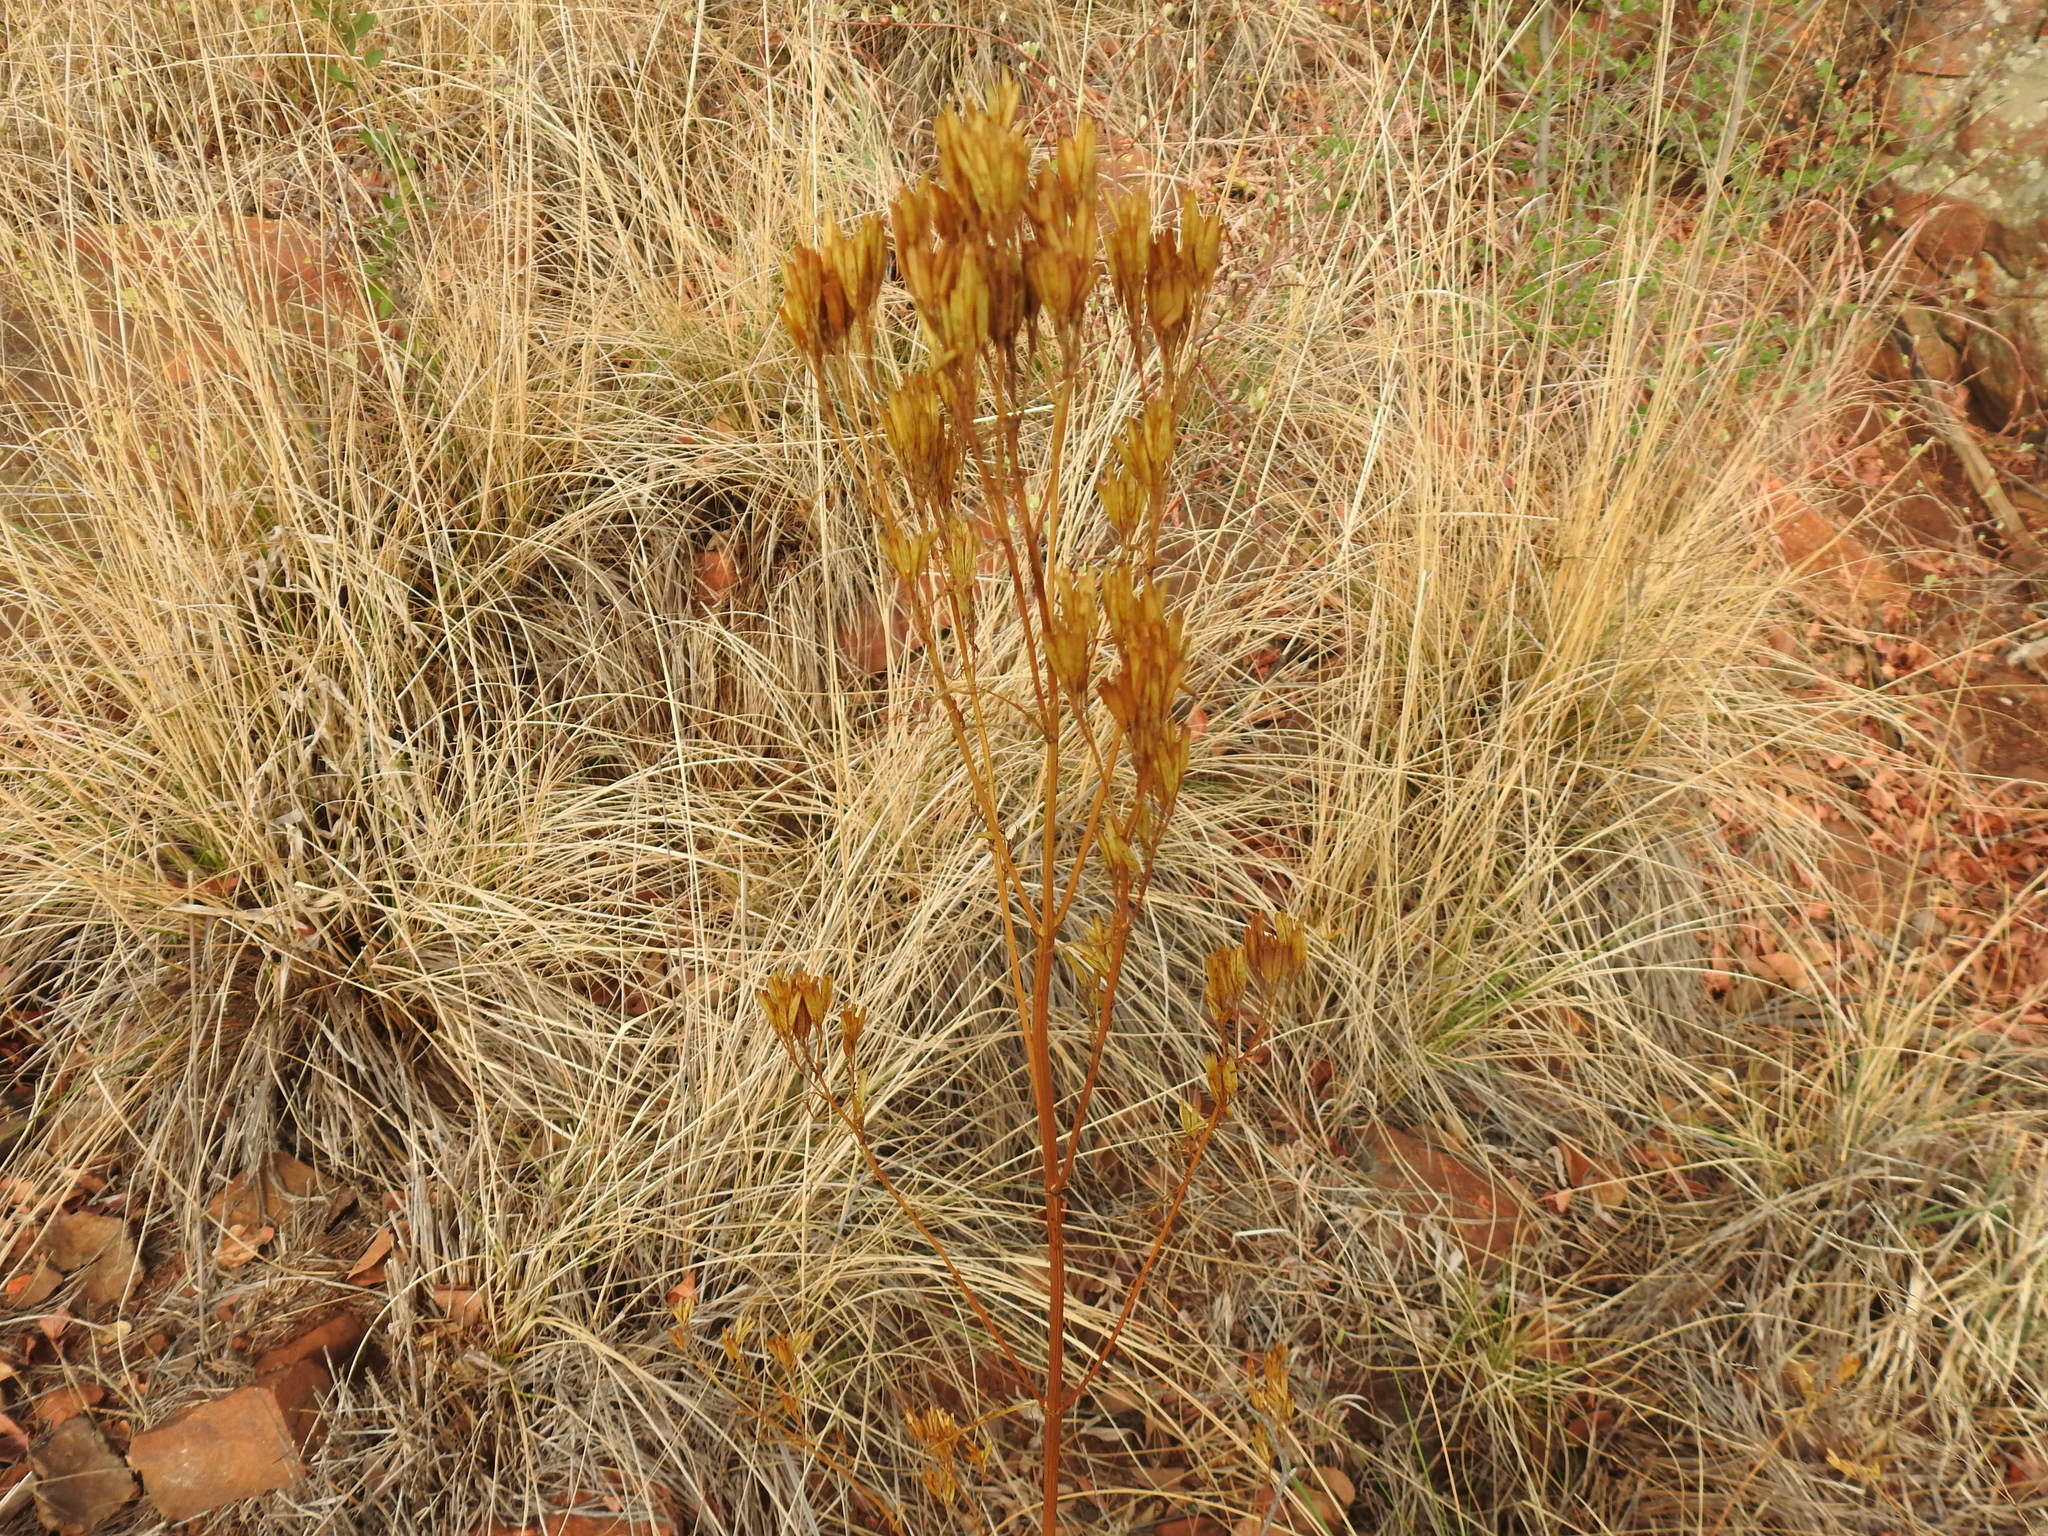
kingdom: Plantae
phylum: Tracheophyta
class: Magnoliopsida
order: Asterales
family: Asteraceae
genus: Tagetes
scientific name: Tagetes minuta
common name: Muster john henry
